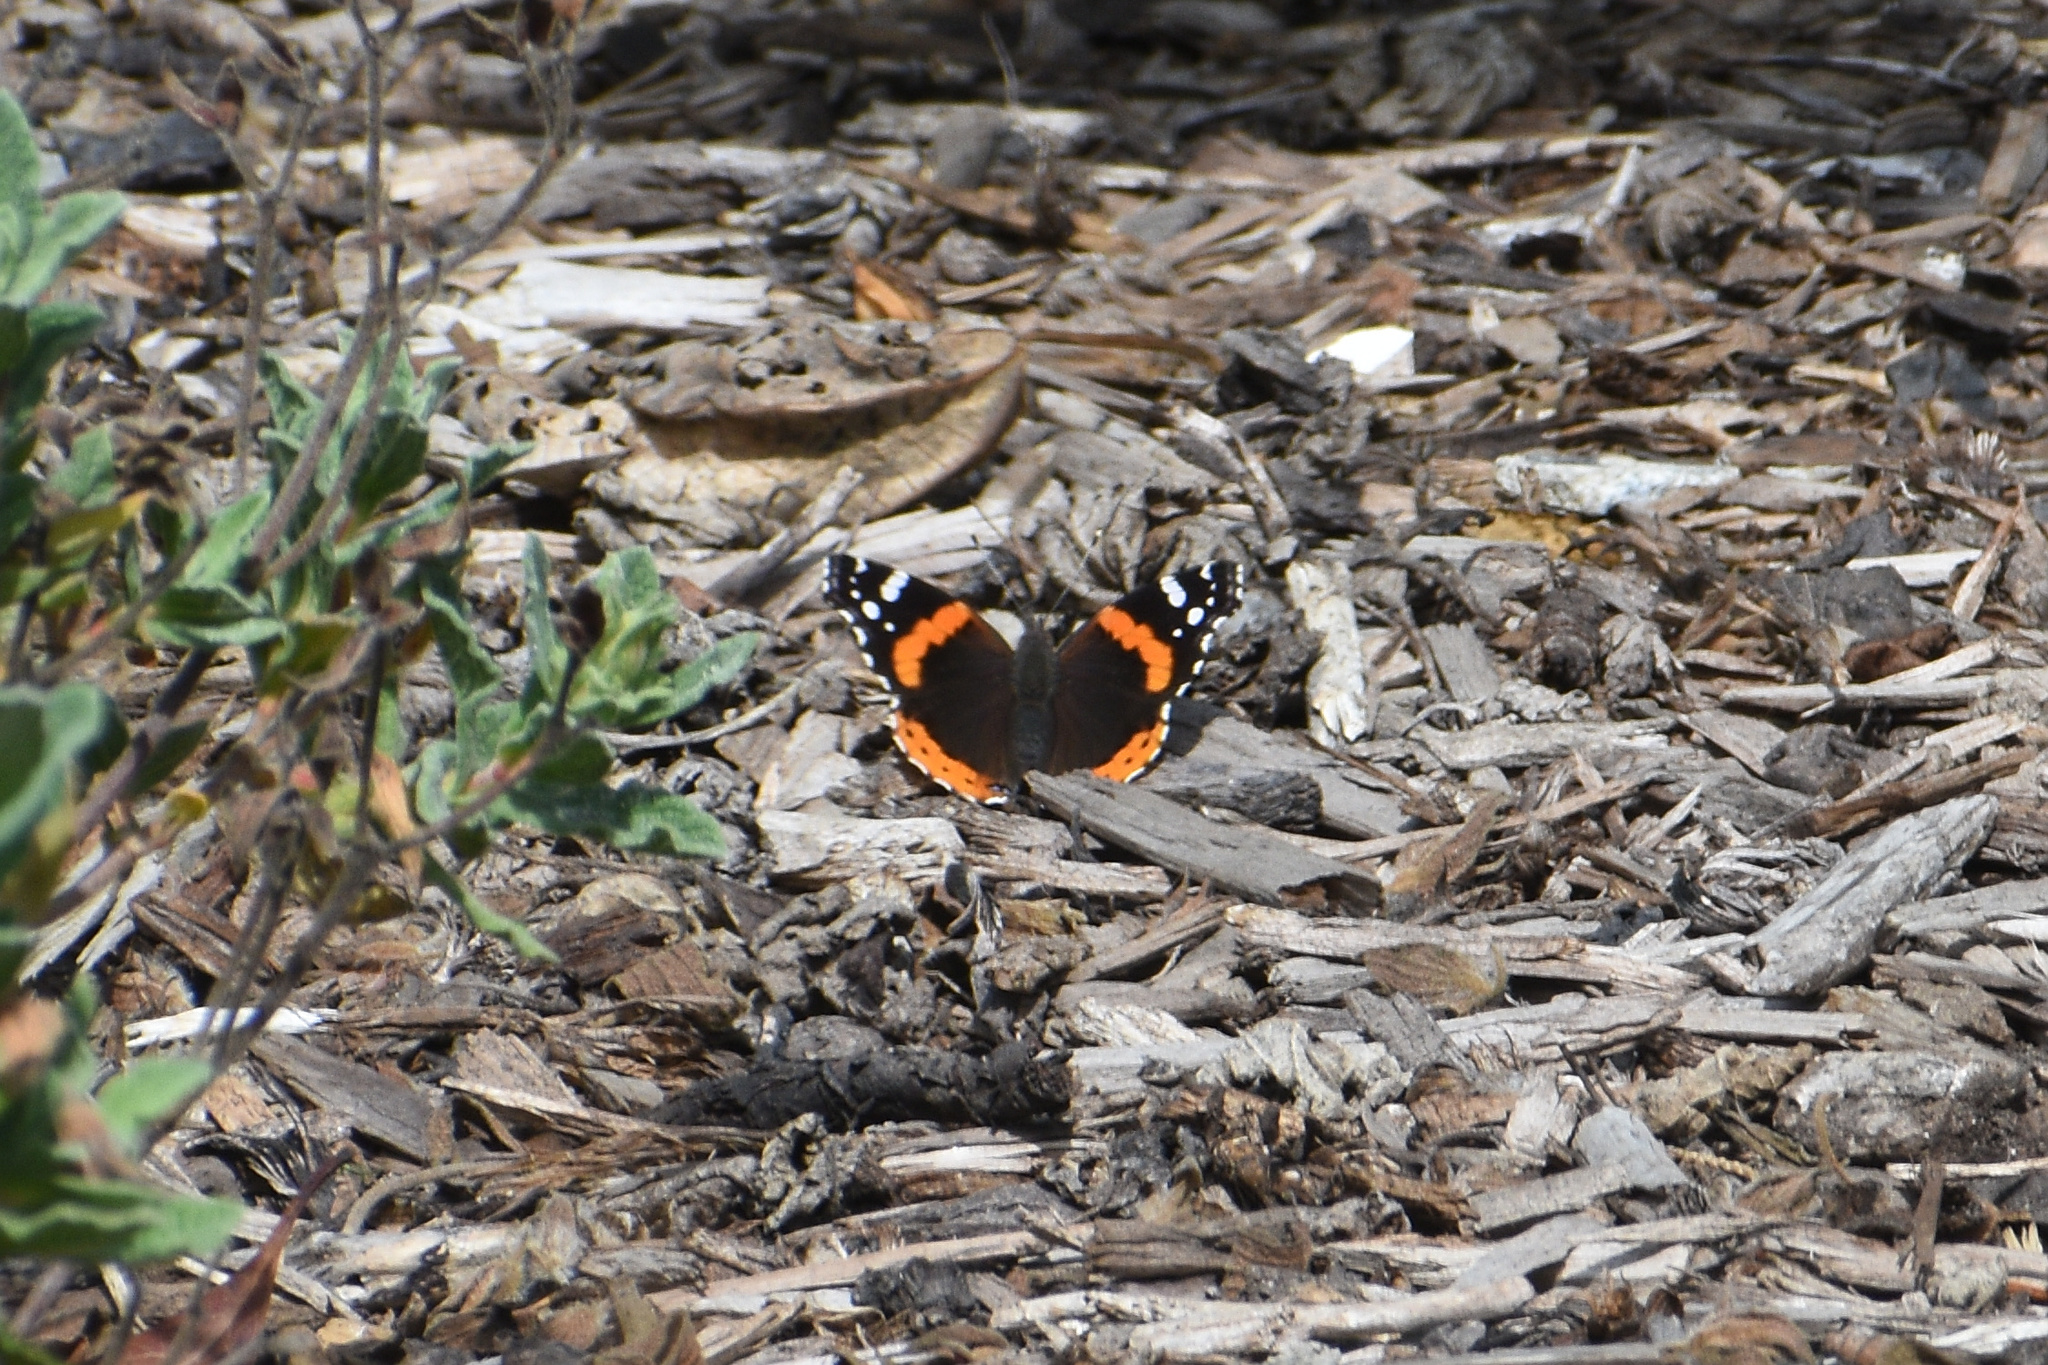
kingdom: Animalia
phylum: Arthropoda
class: Insecta
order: Lepidoptera
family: Nymphalidae
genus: Vanessa
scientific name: Vanessa atalanta
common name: Red admiral
